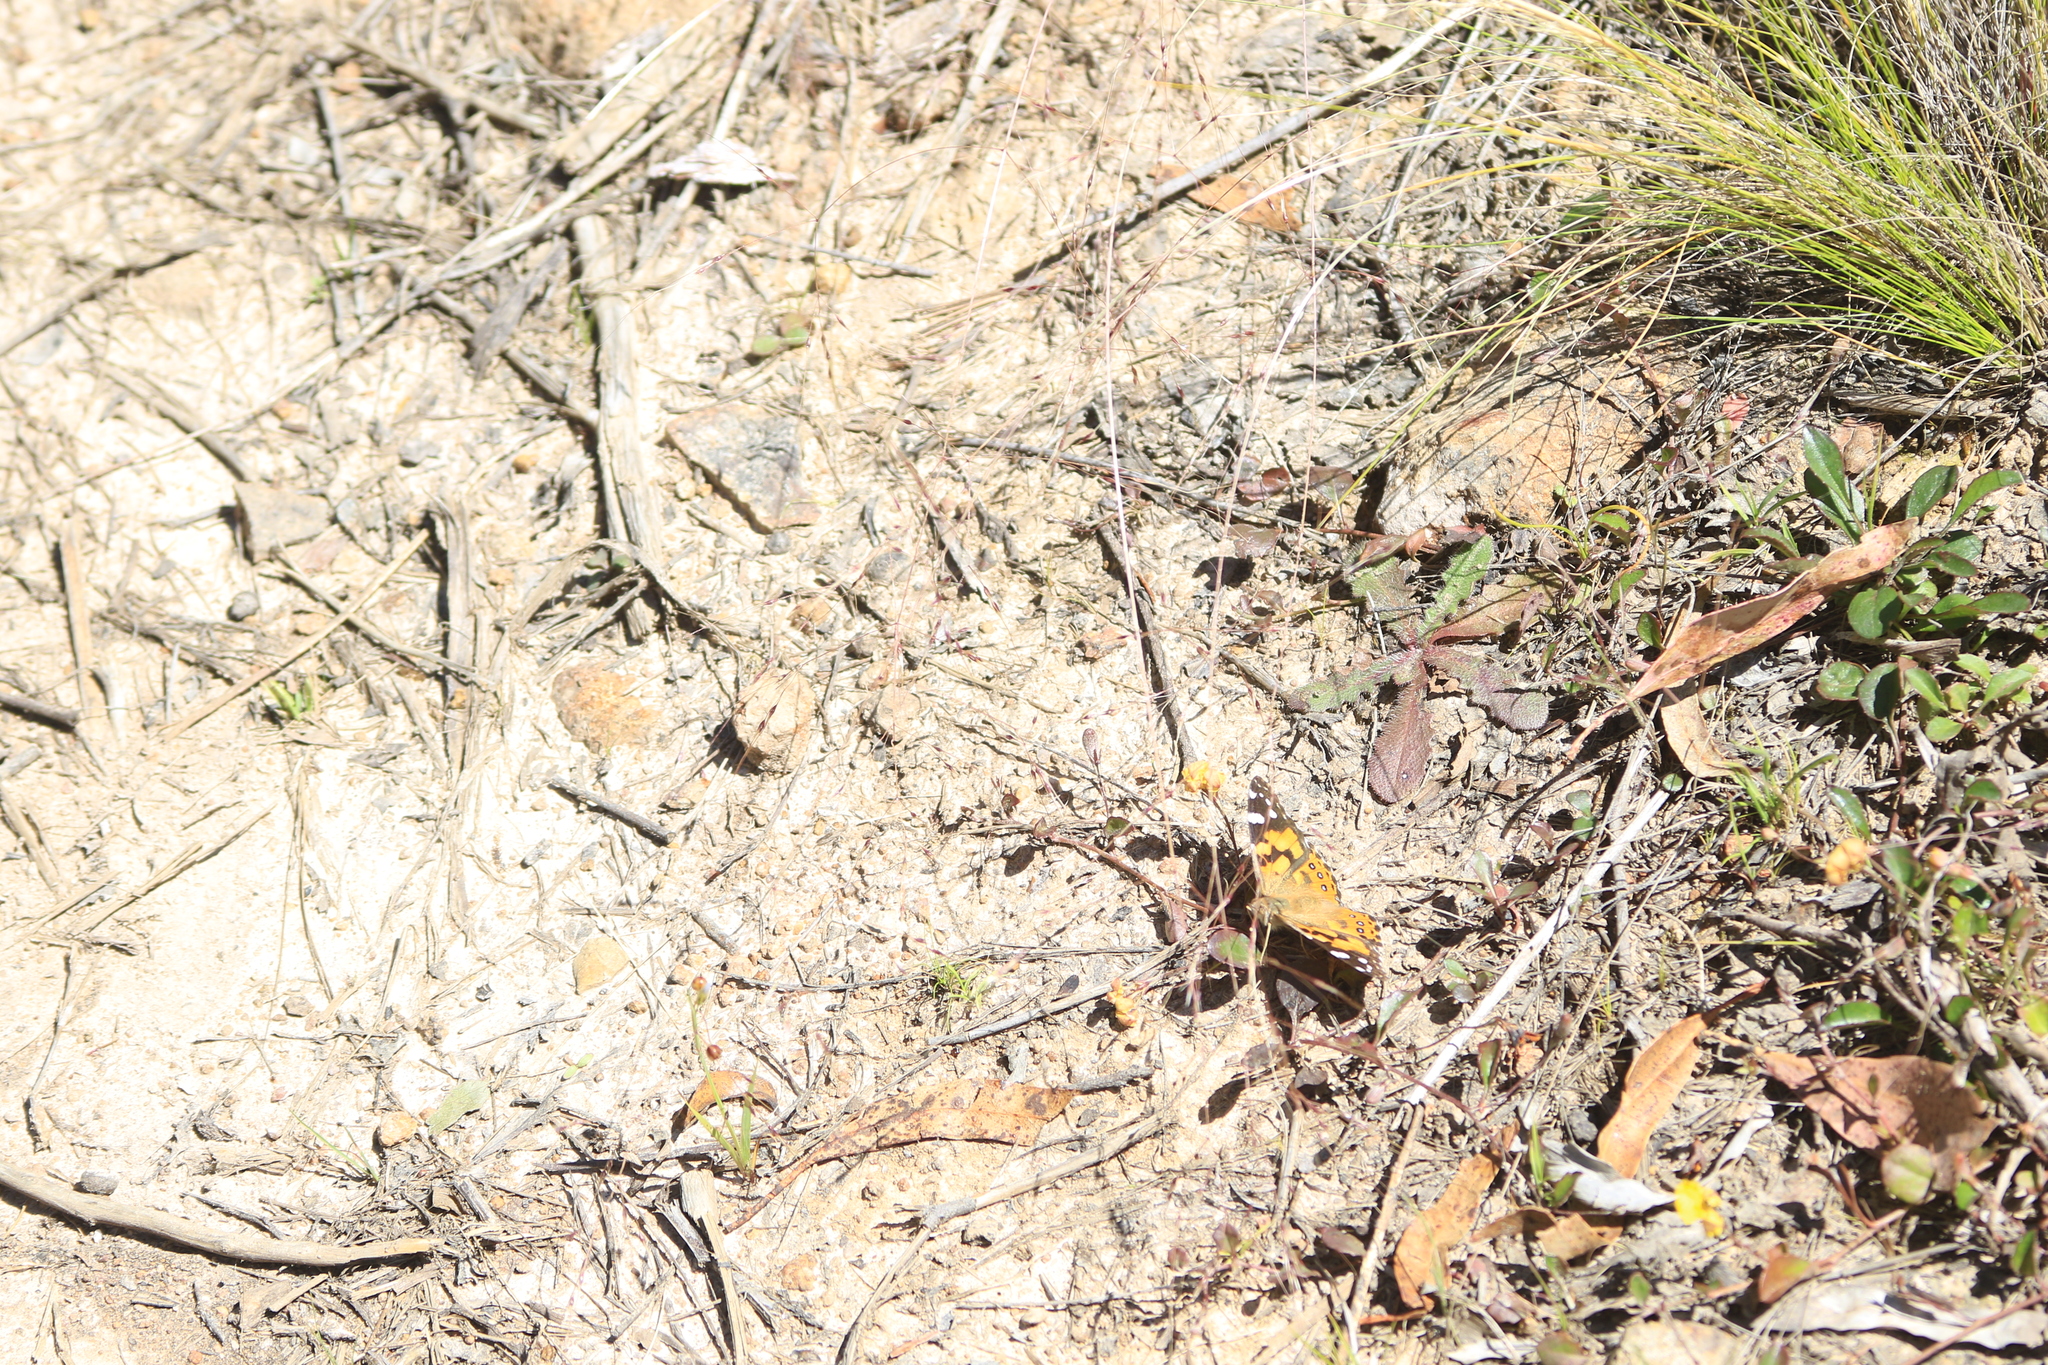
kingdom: Animalia
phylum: Arthropoda
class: Insecta
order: Lepidoptera
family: Nymphalidae
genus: Vanessa
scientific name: Vanessa kershawi
